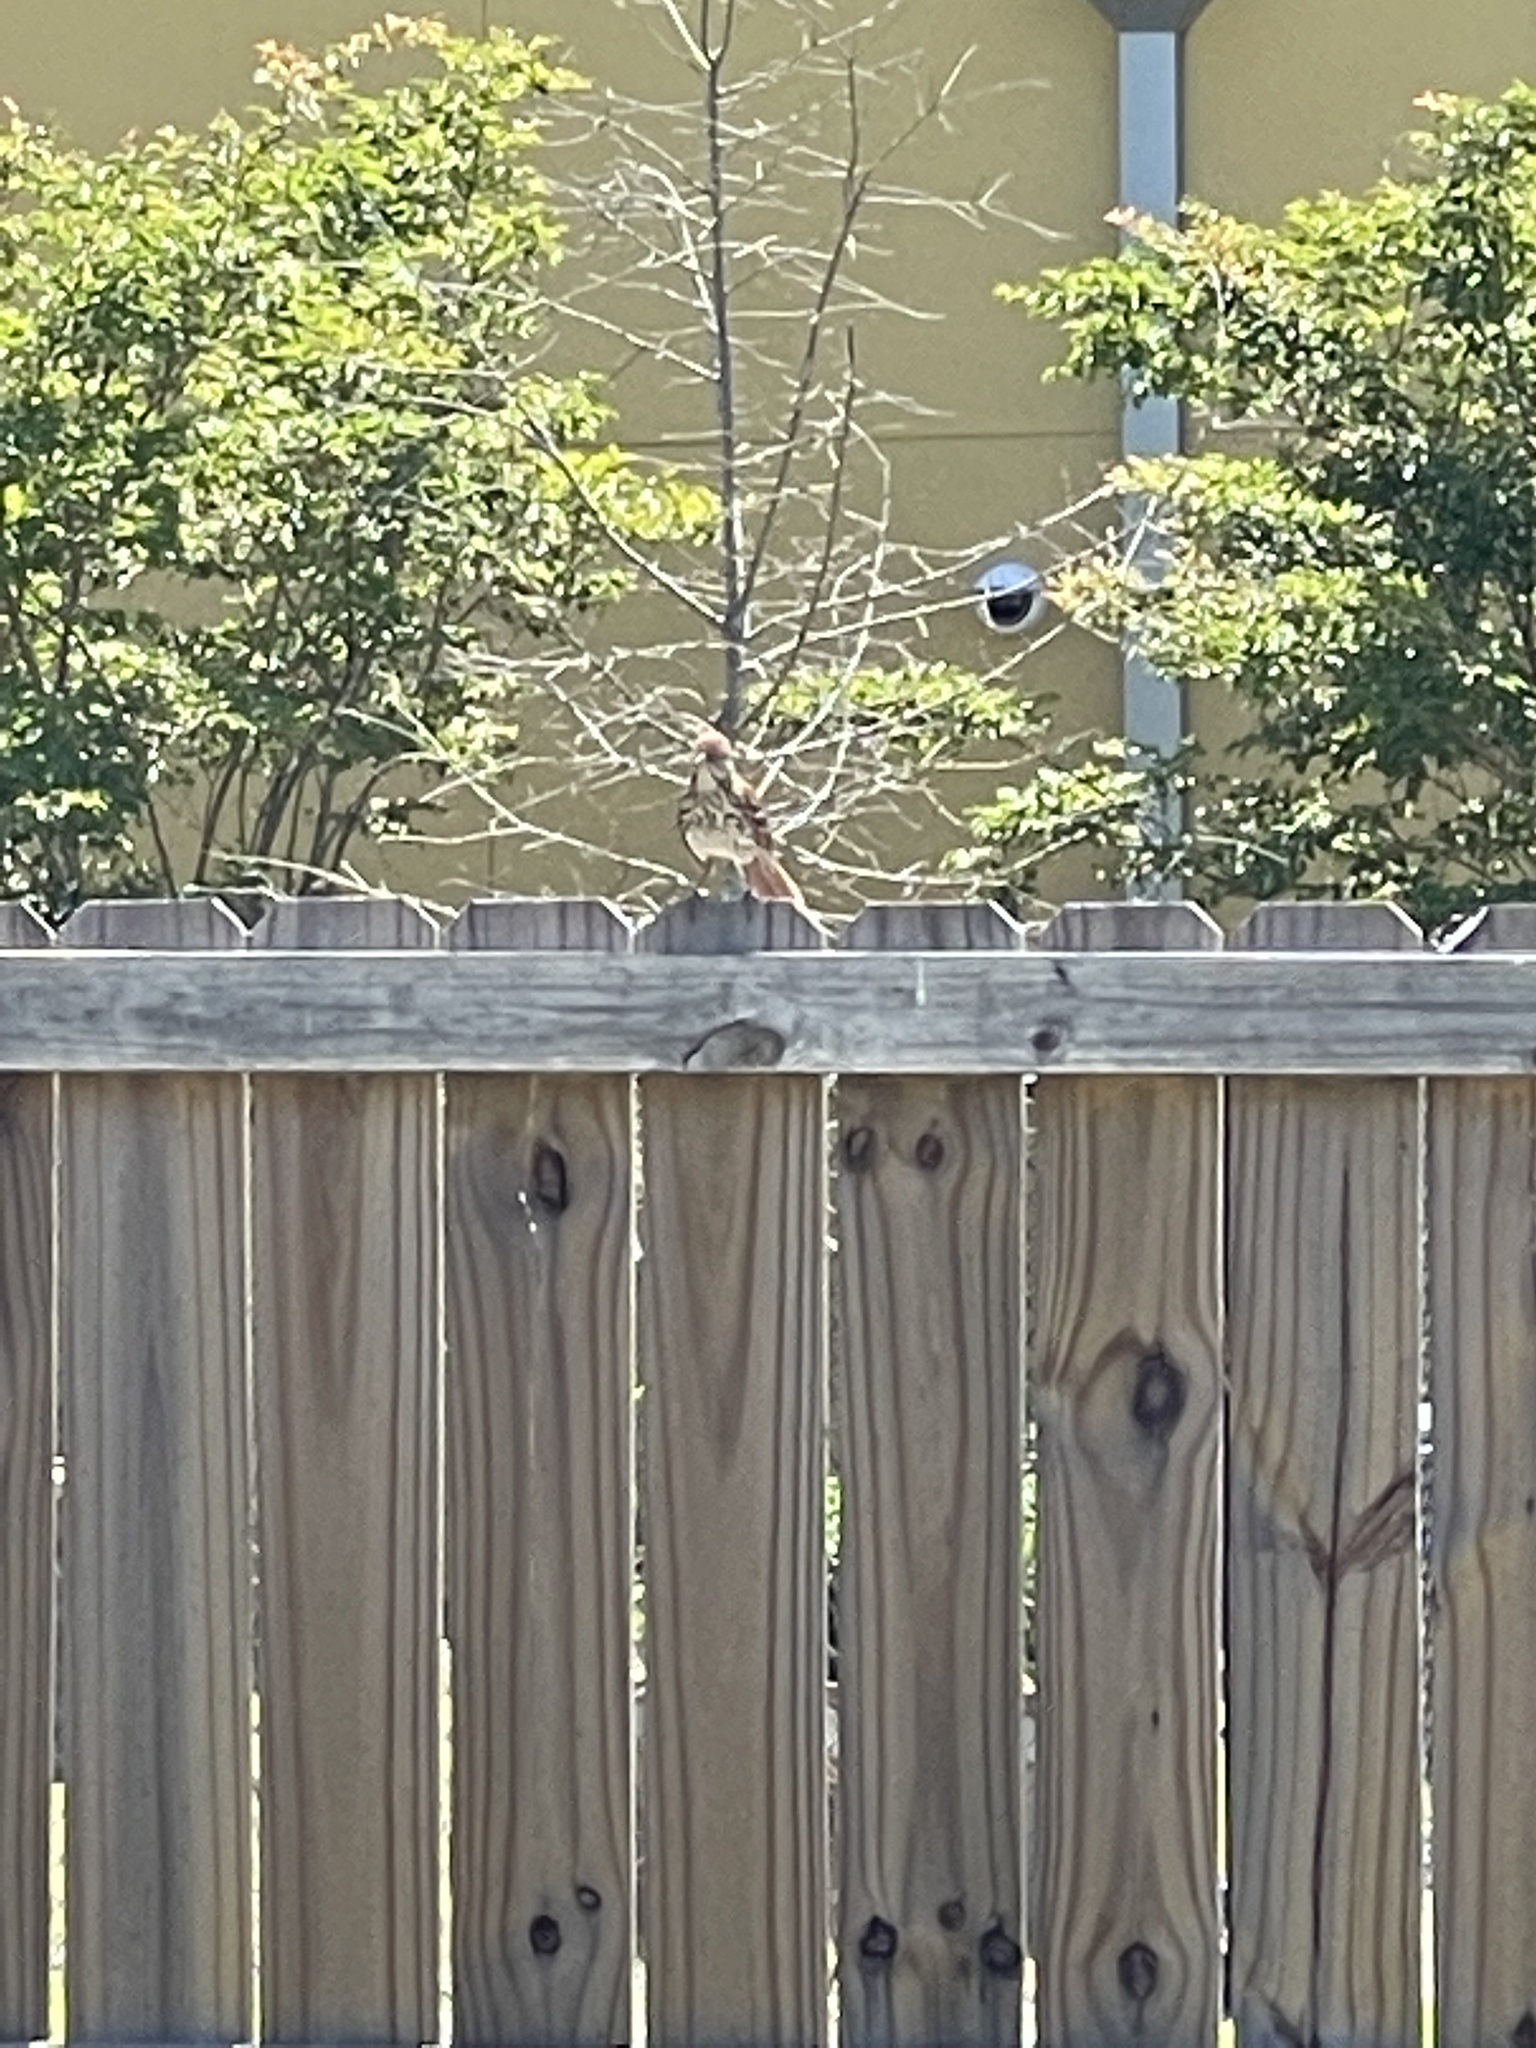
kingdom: Animalia
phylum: Chordata
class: Aves
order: Passeriformes
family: Mimidae
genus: Toxostoma
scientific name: Toxostoma rufum
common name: Brown thrasher
